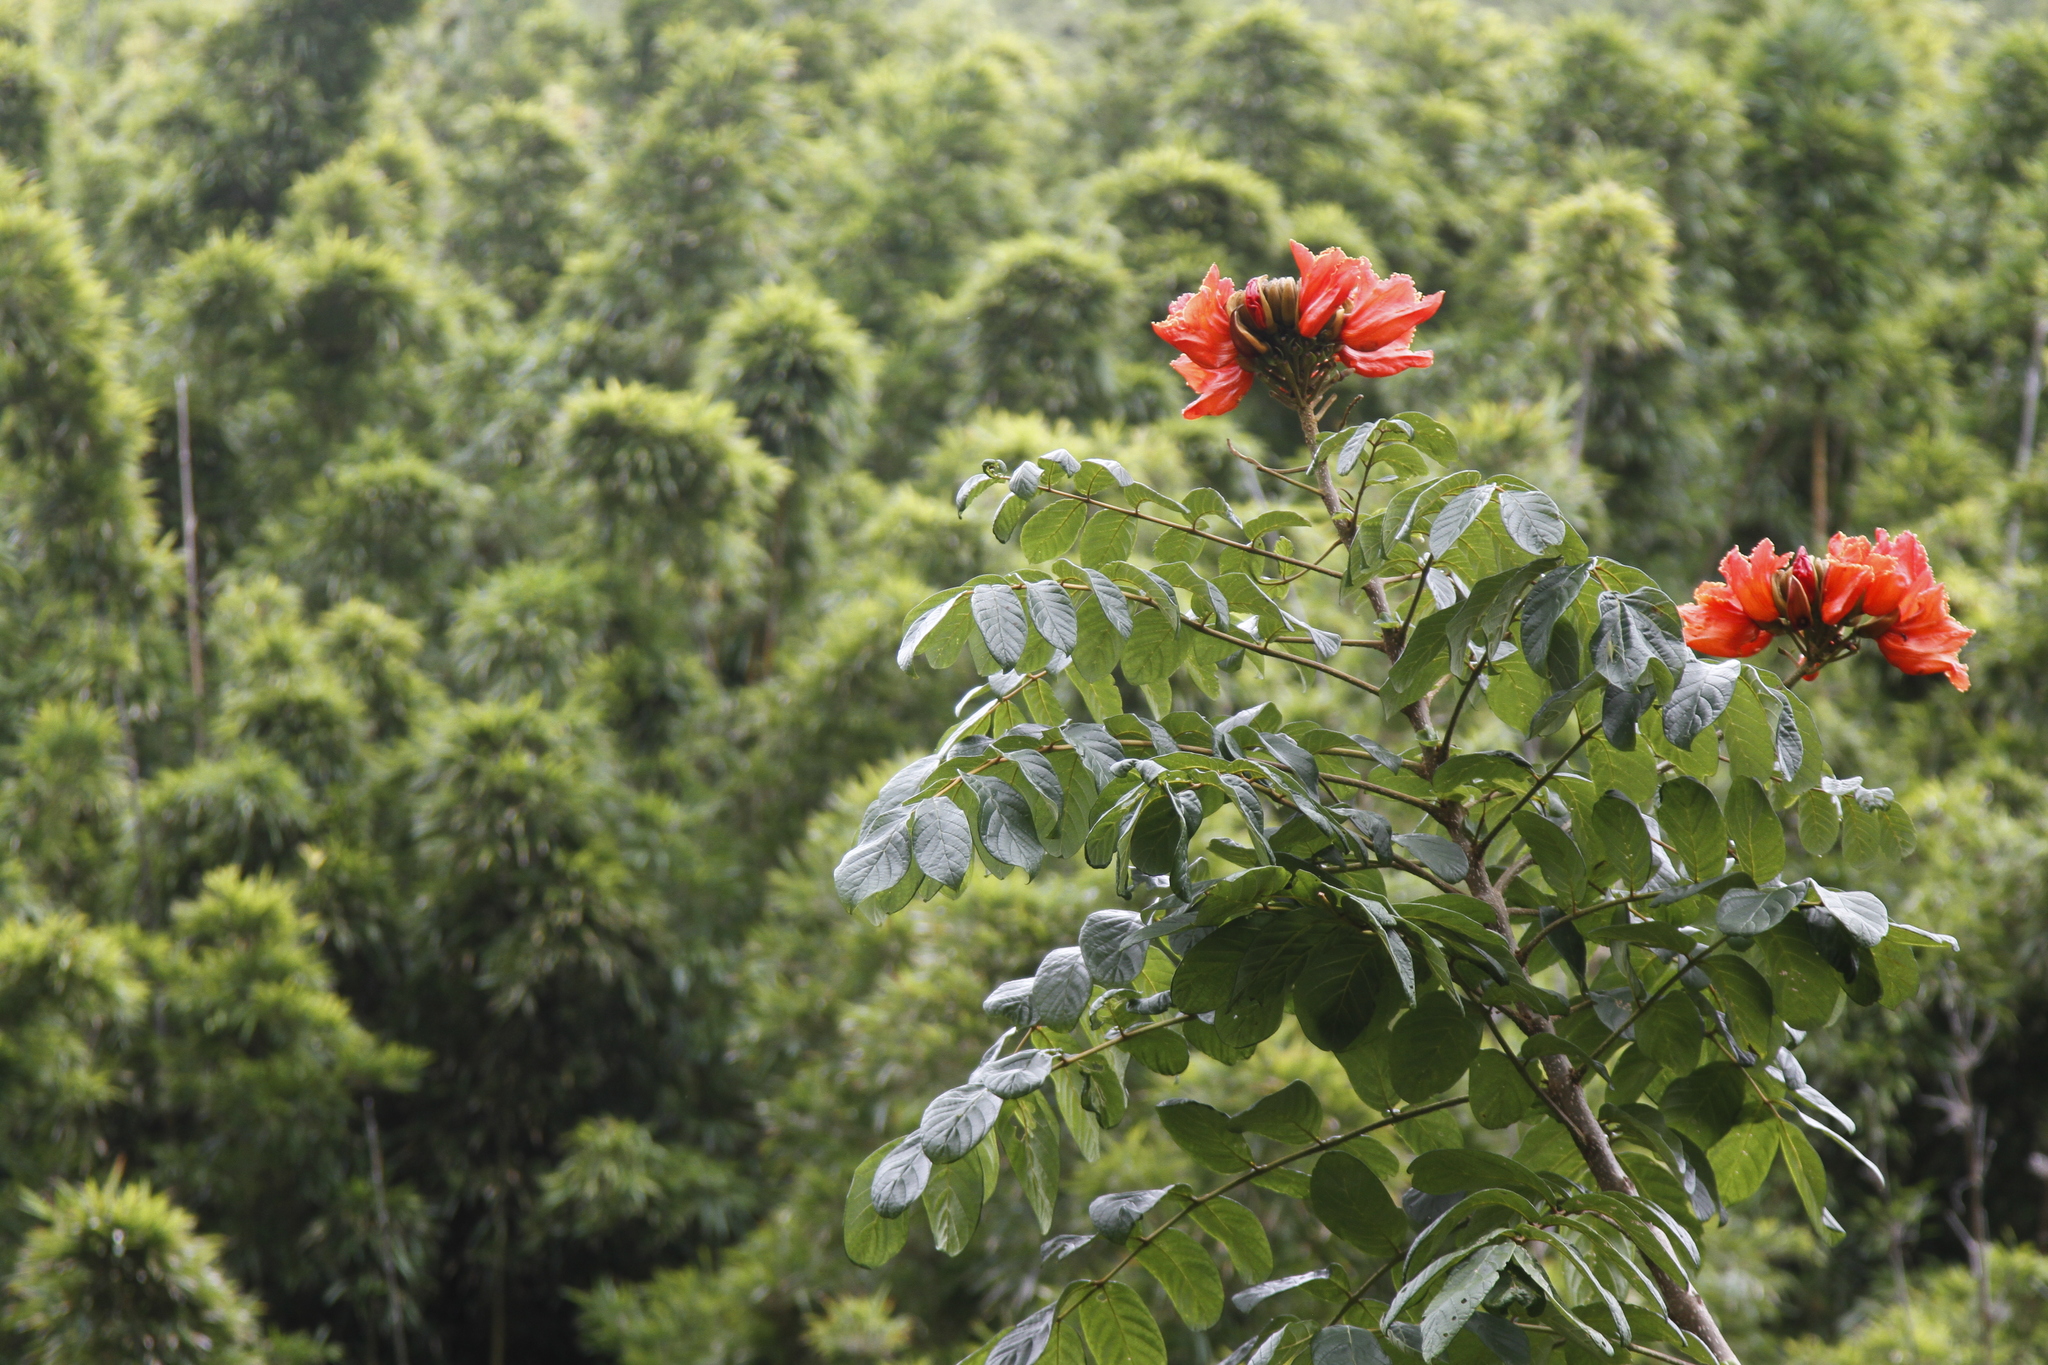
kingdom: Plantae
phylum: Tracheophyta
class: Magnoliopsida
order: Lamiales
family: Bignoniaceae
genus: Spathodea
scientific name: Spathodea campanulata
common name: African tuliptree
